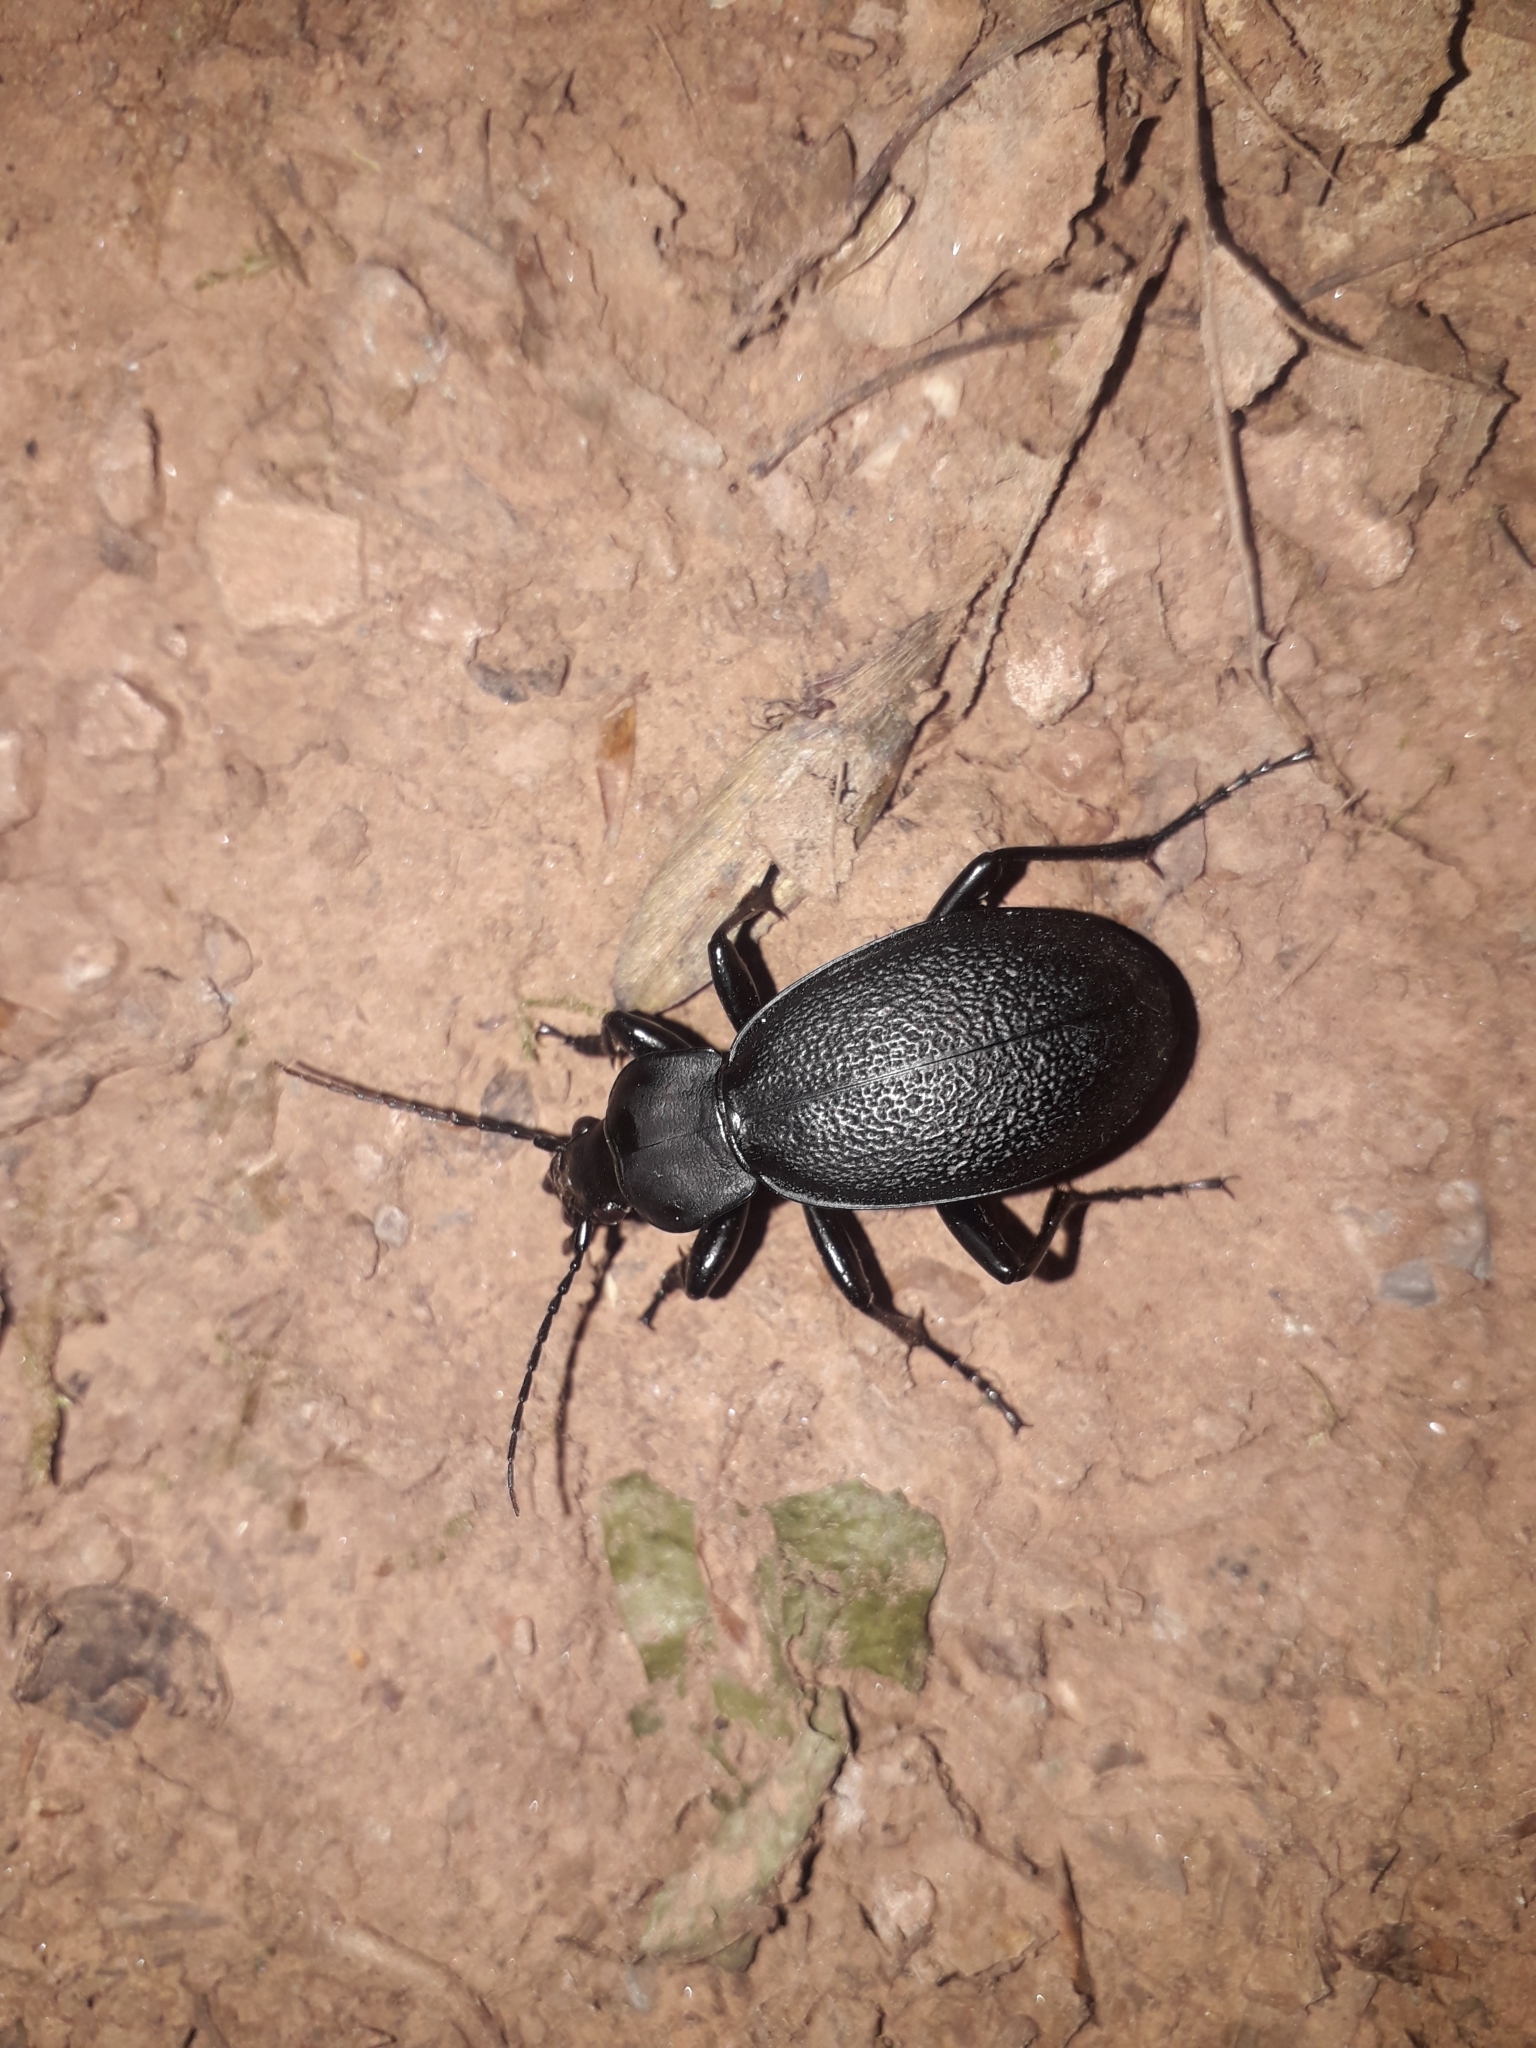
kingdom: Animalia
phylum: Arthropoda
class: Insecta
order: Coleoptera
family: Carabidae
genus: Carabus
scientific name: Carabus coriaceus
